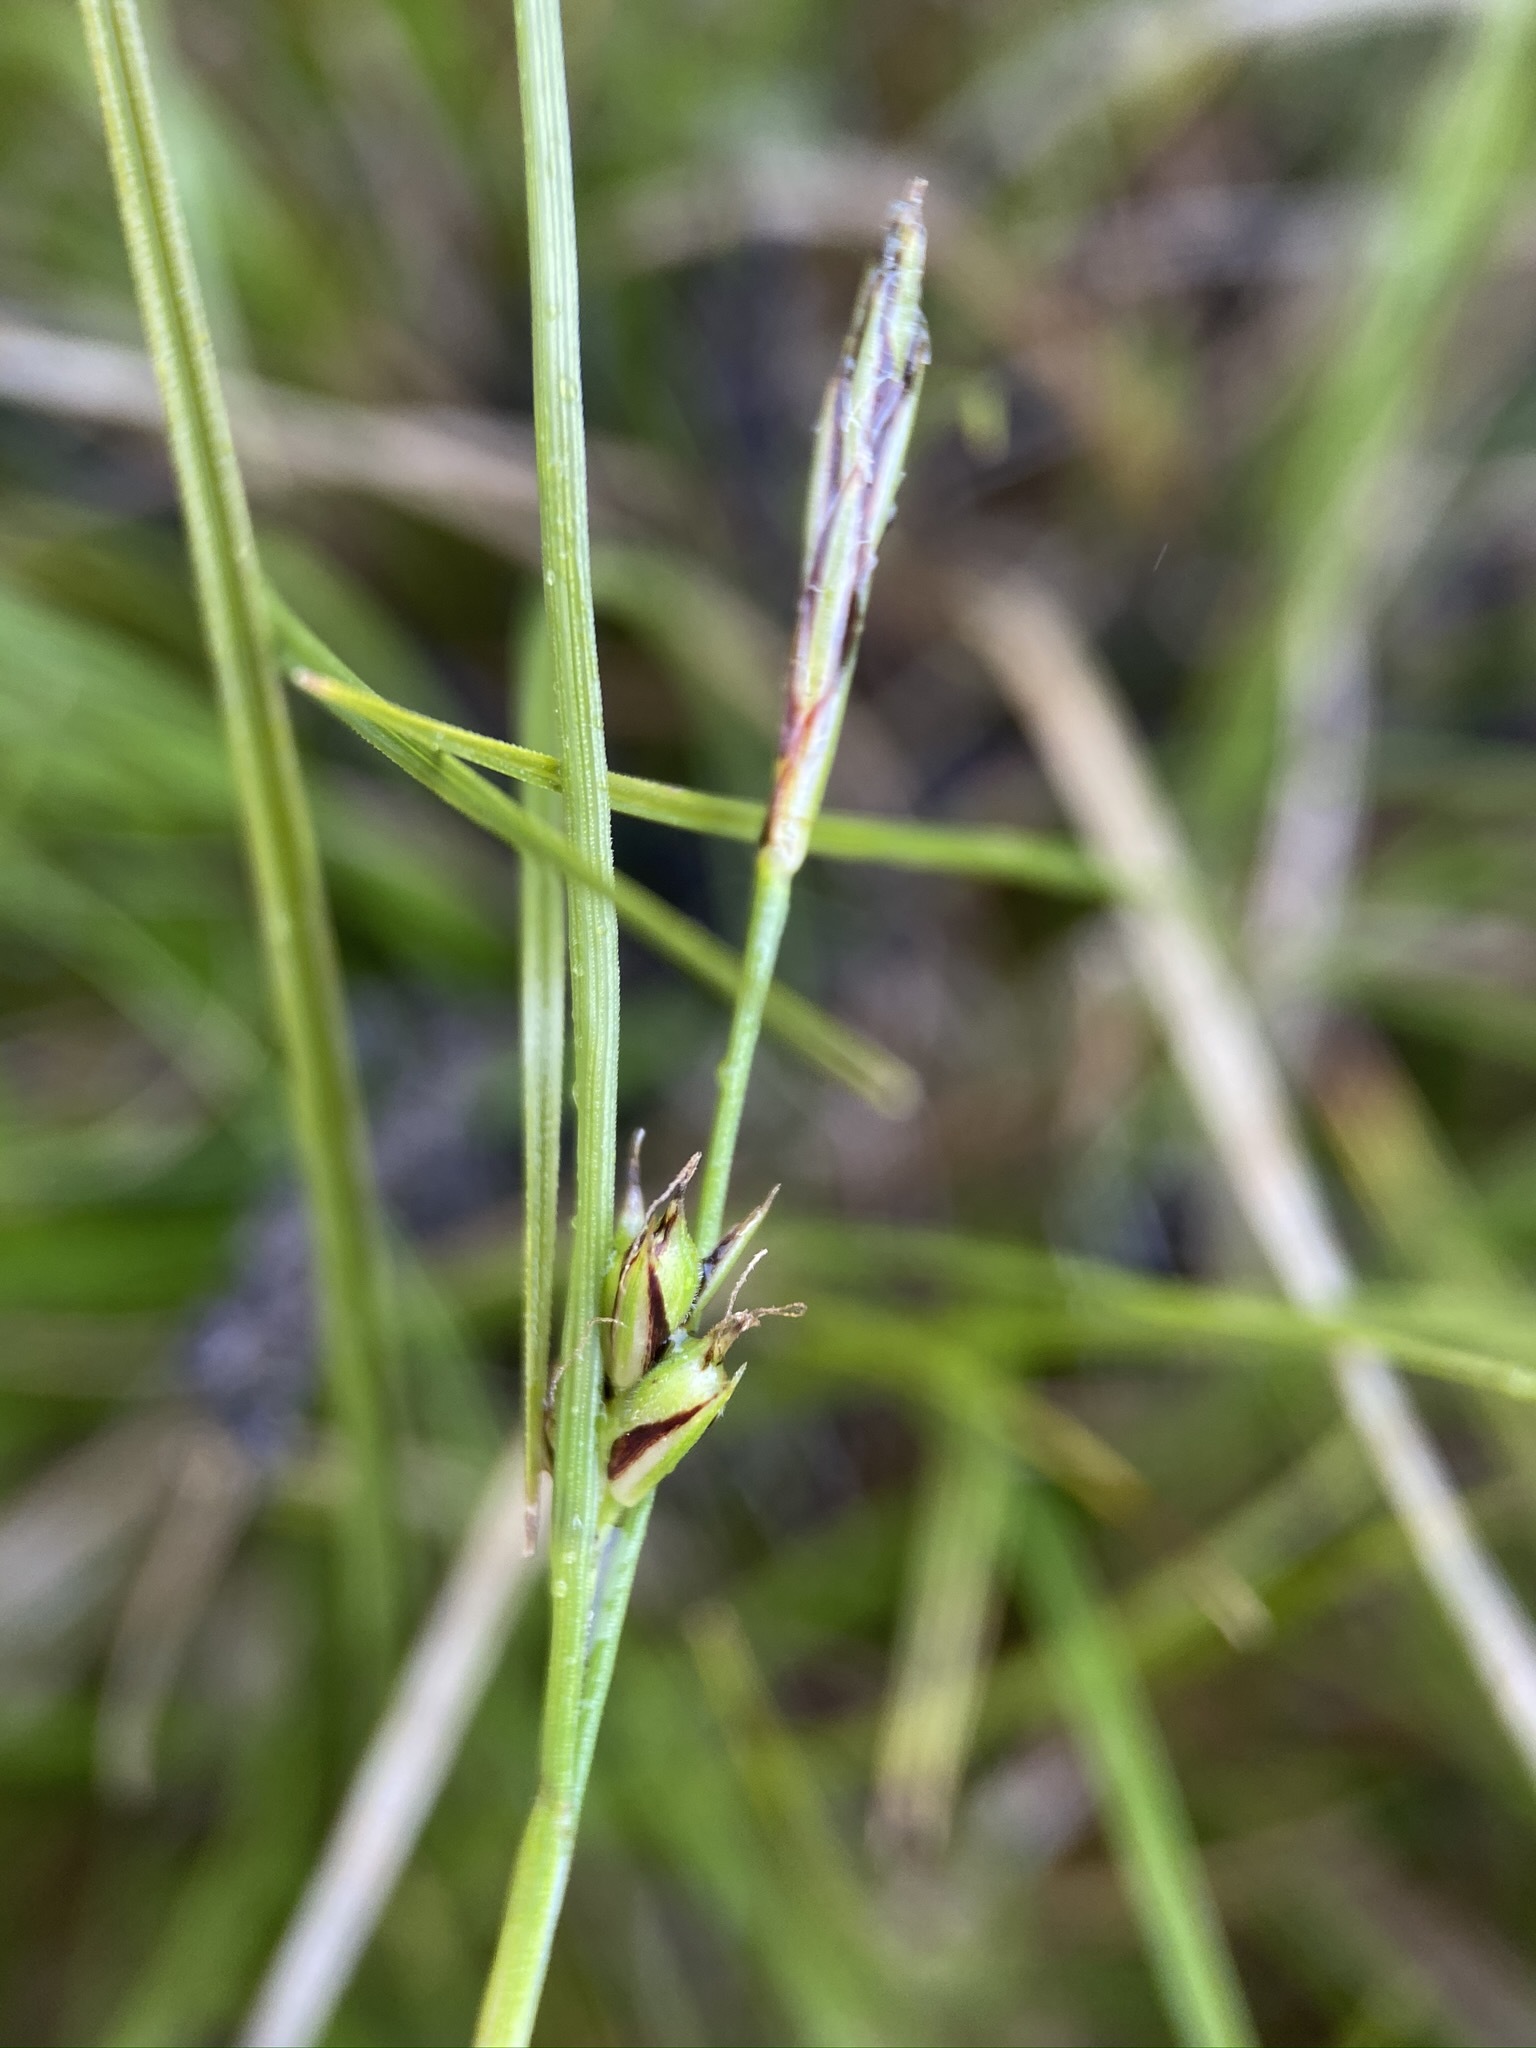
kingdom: Plantae
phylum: Tracheophyta
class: Liliopsida
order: Poales
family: Cyperaceae
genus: Carex
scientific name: Carex xerophila
